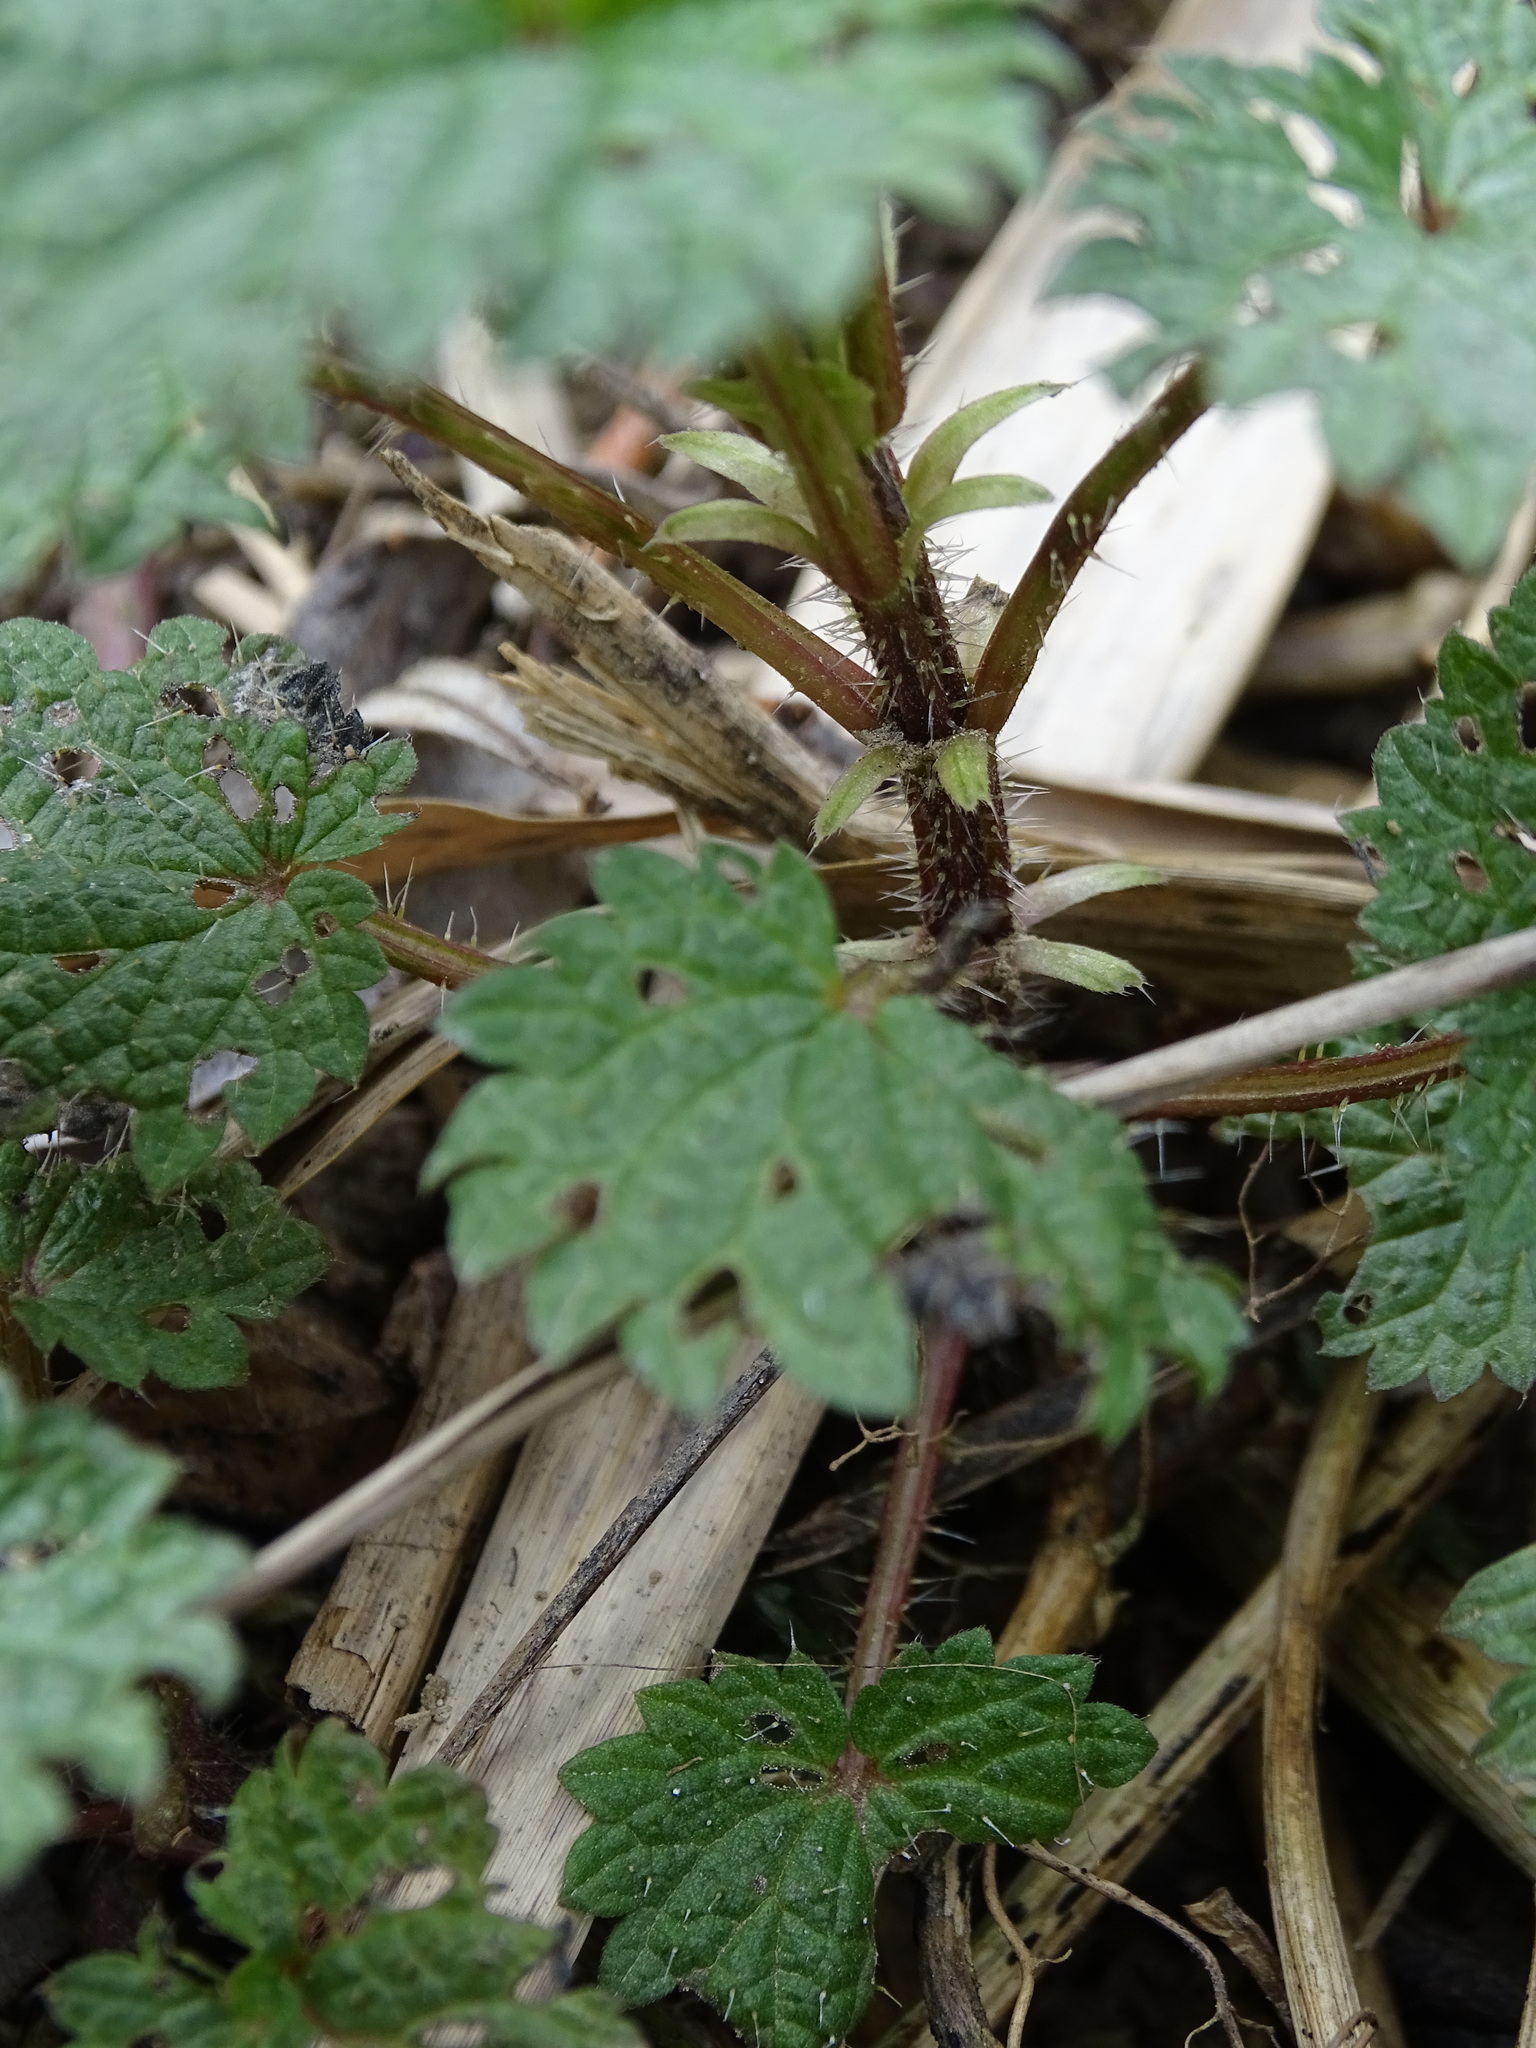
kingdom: Plantae
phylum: Tracheophyta
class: Magnoliopsida
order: Rosales
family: Urticaceae
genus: Urtica
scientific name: Urtica dioica
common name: Common nettle
